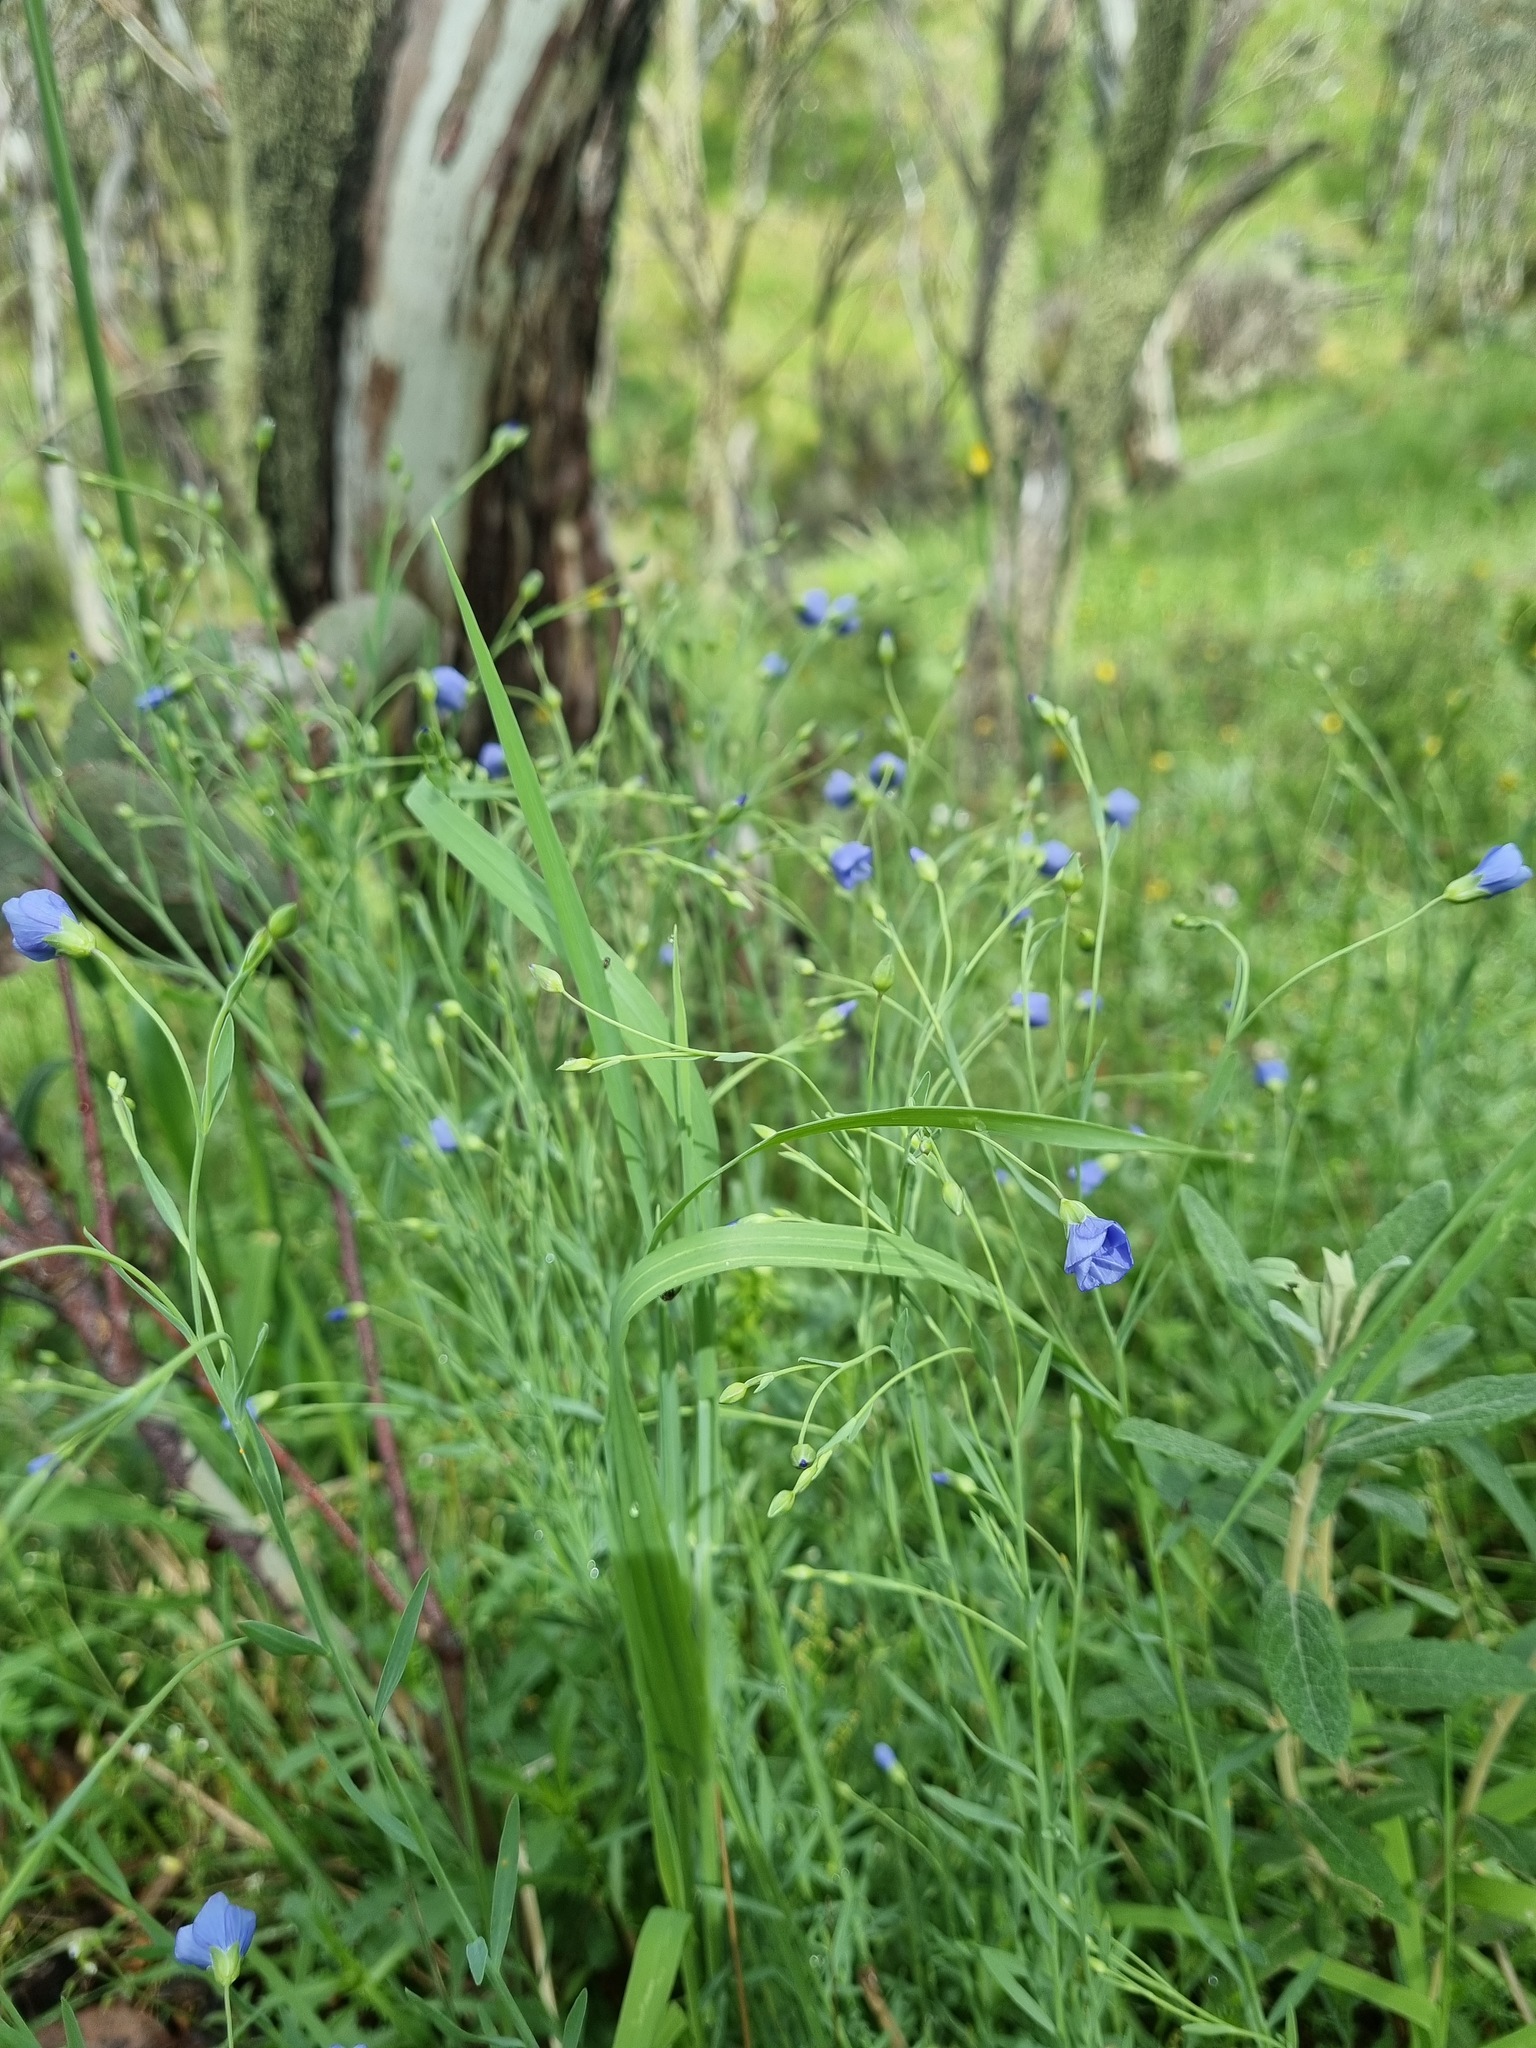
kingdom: Plantae
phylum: Tracheophyta
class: Magnoliopsida
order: Malpighiales
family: Linaceae
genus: Linum
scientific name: Linum marginale
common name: Wild flax
